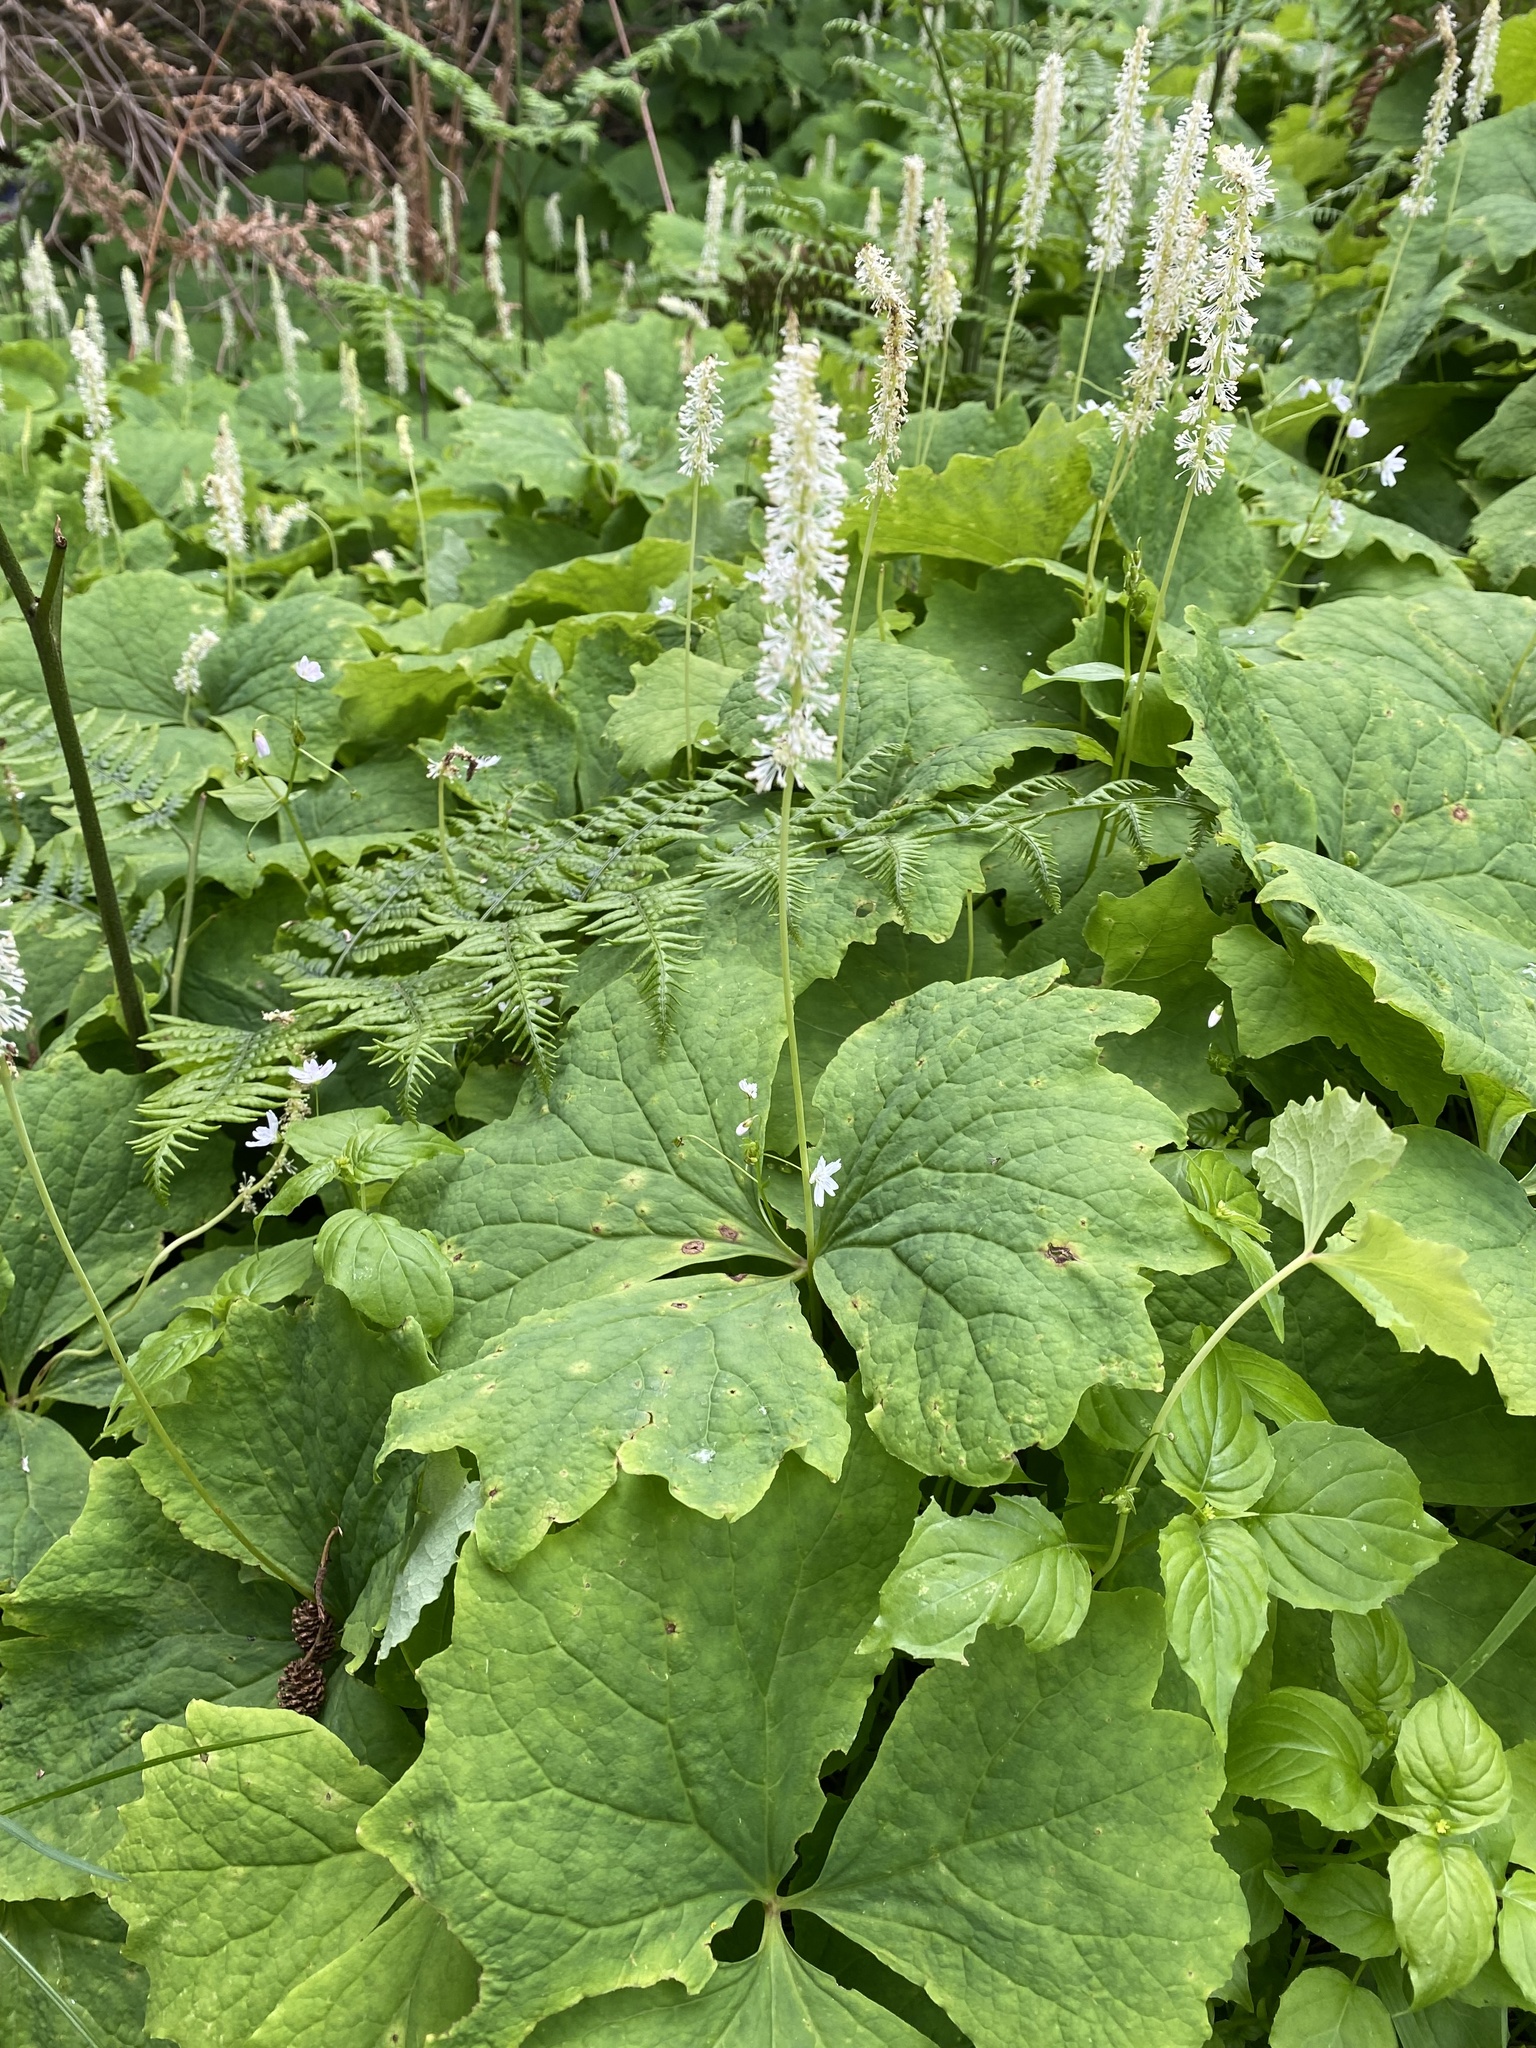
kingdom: Plantae
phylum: Tracheophyta
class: Magnoliopsida
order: Ranunculales
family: Berberidaceae
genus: Achlys
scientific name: Achlys triphylla
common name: Vanilla-leaf
